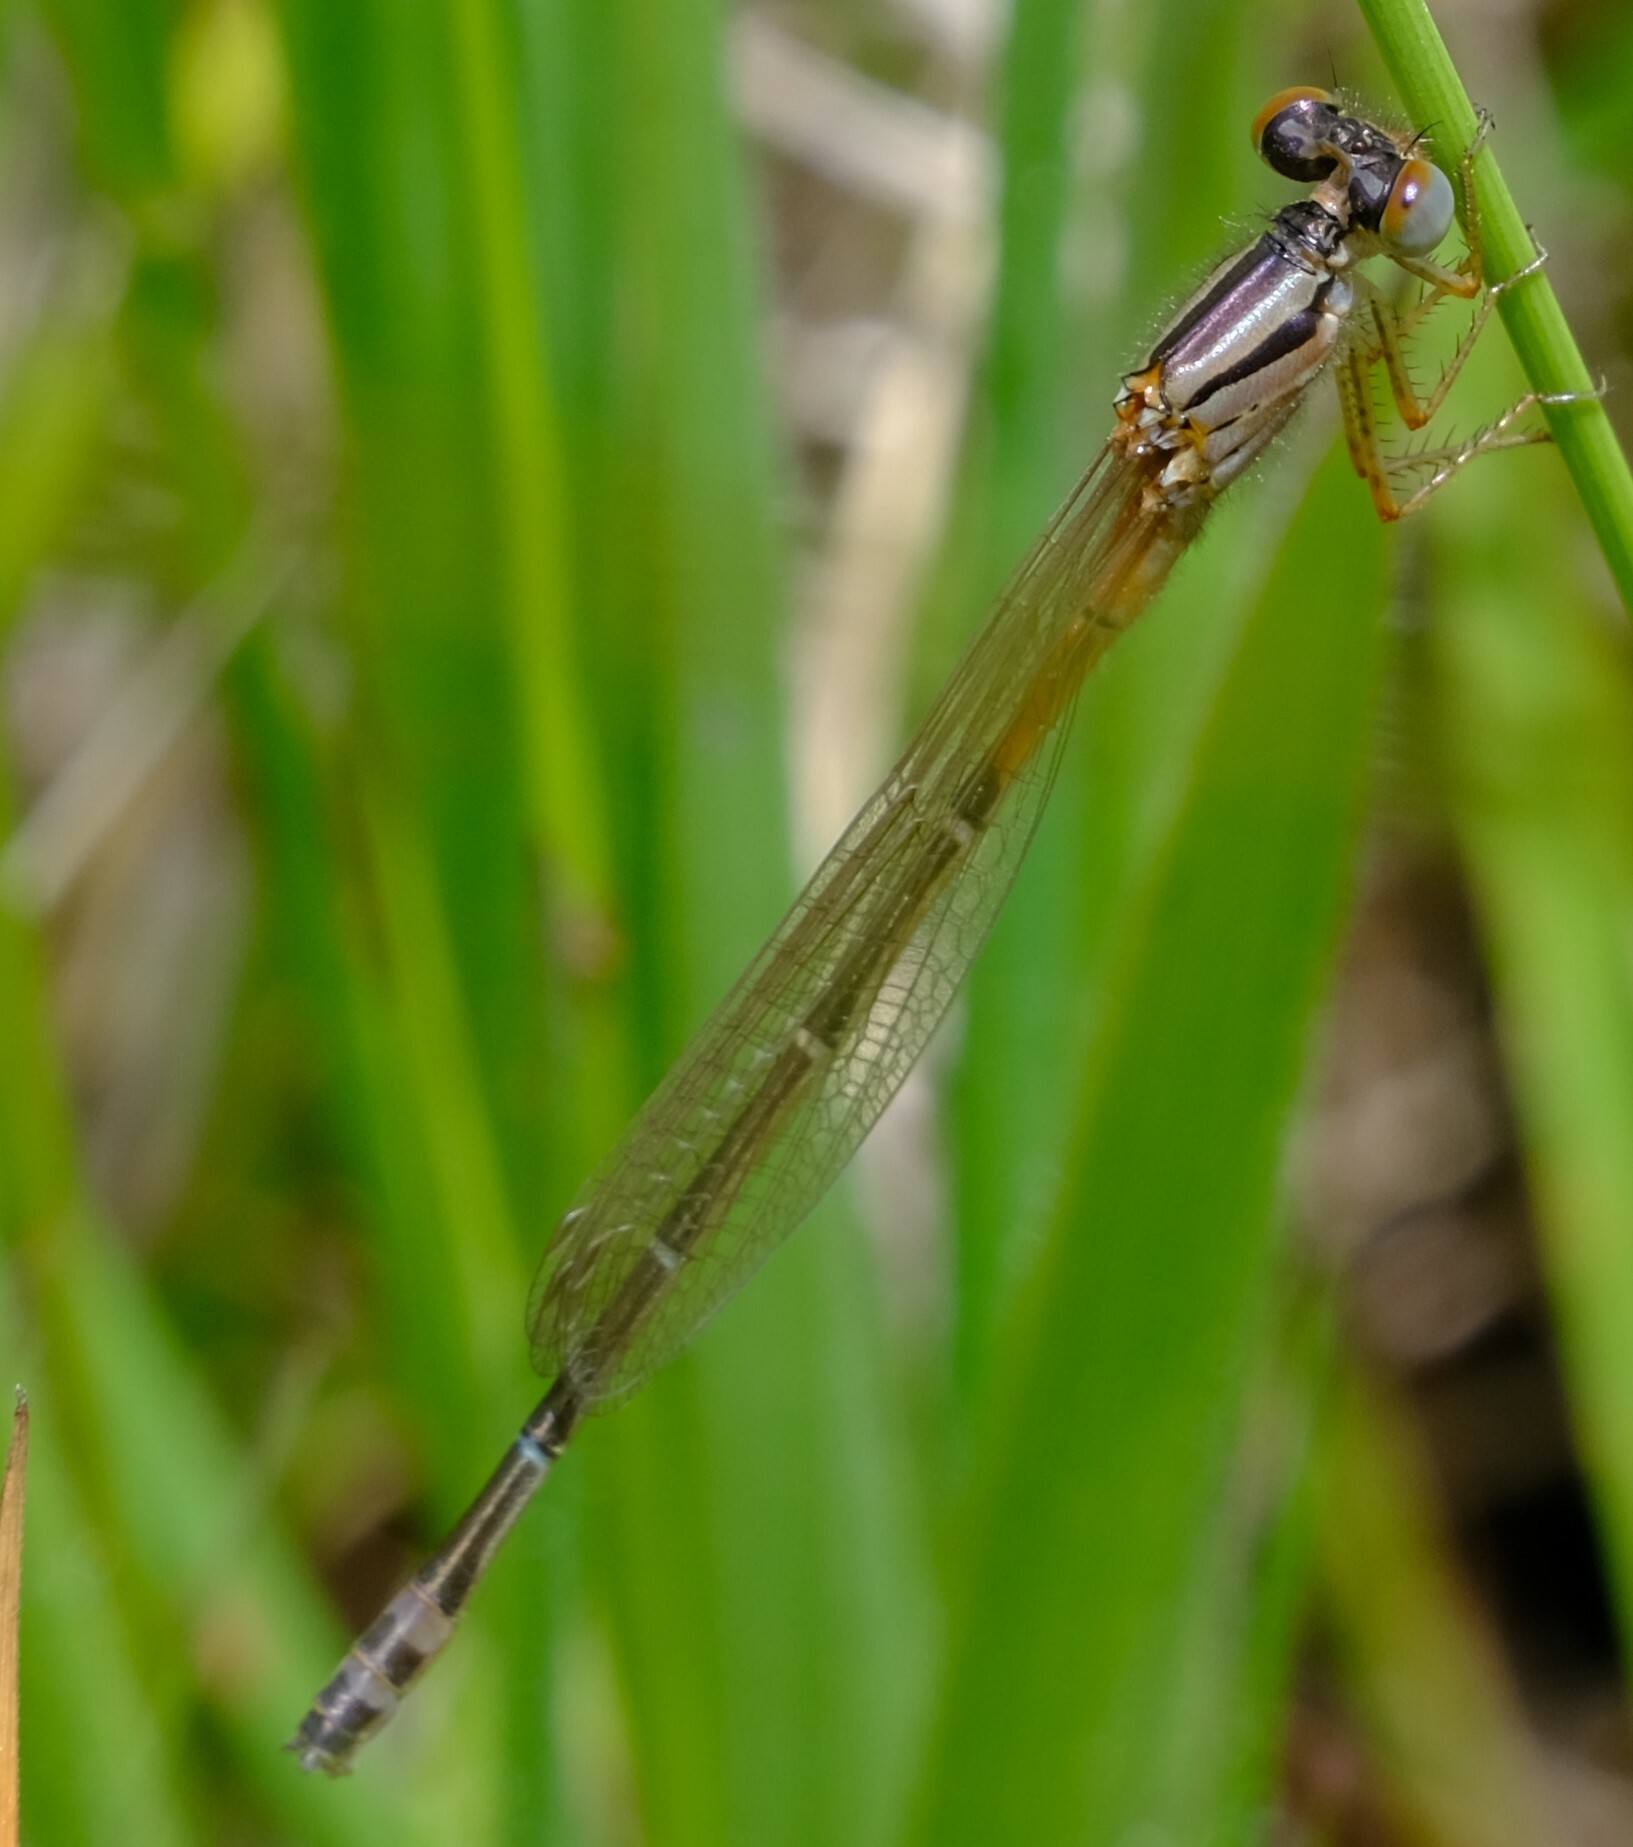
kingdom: Animalia
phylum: Arthropoda
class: Insecta
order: Odonata
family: Coenagrionidae
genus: Xanthagrion
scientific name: Xanthagrion erythroneurum
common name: Red and blue damsel
